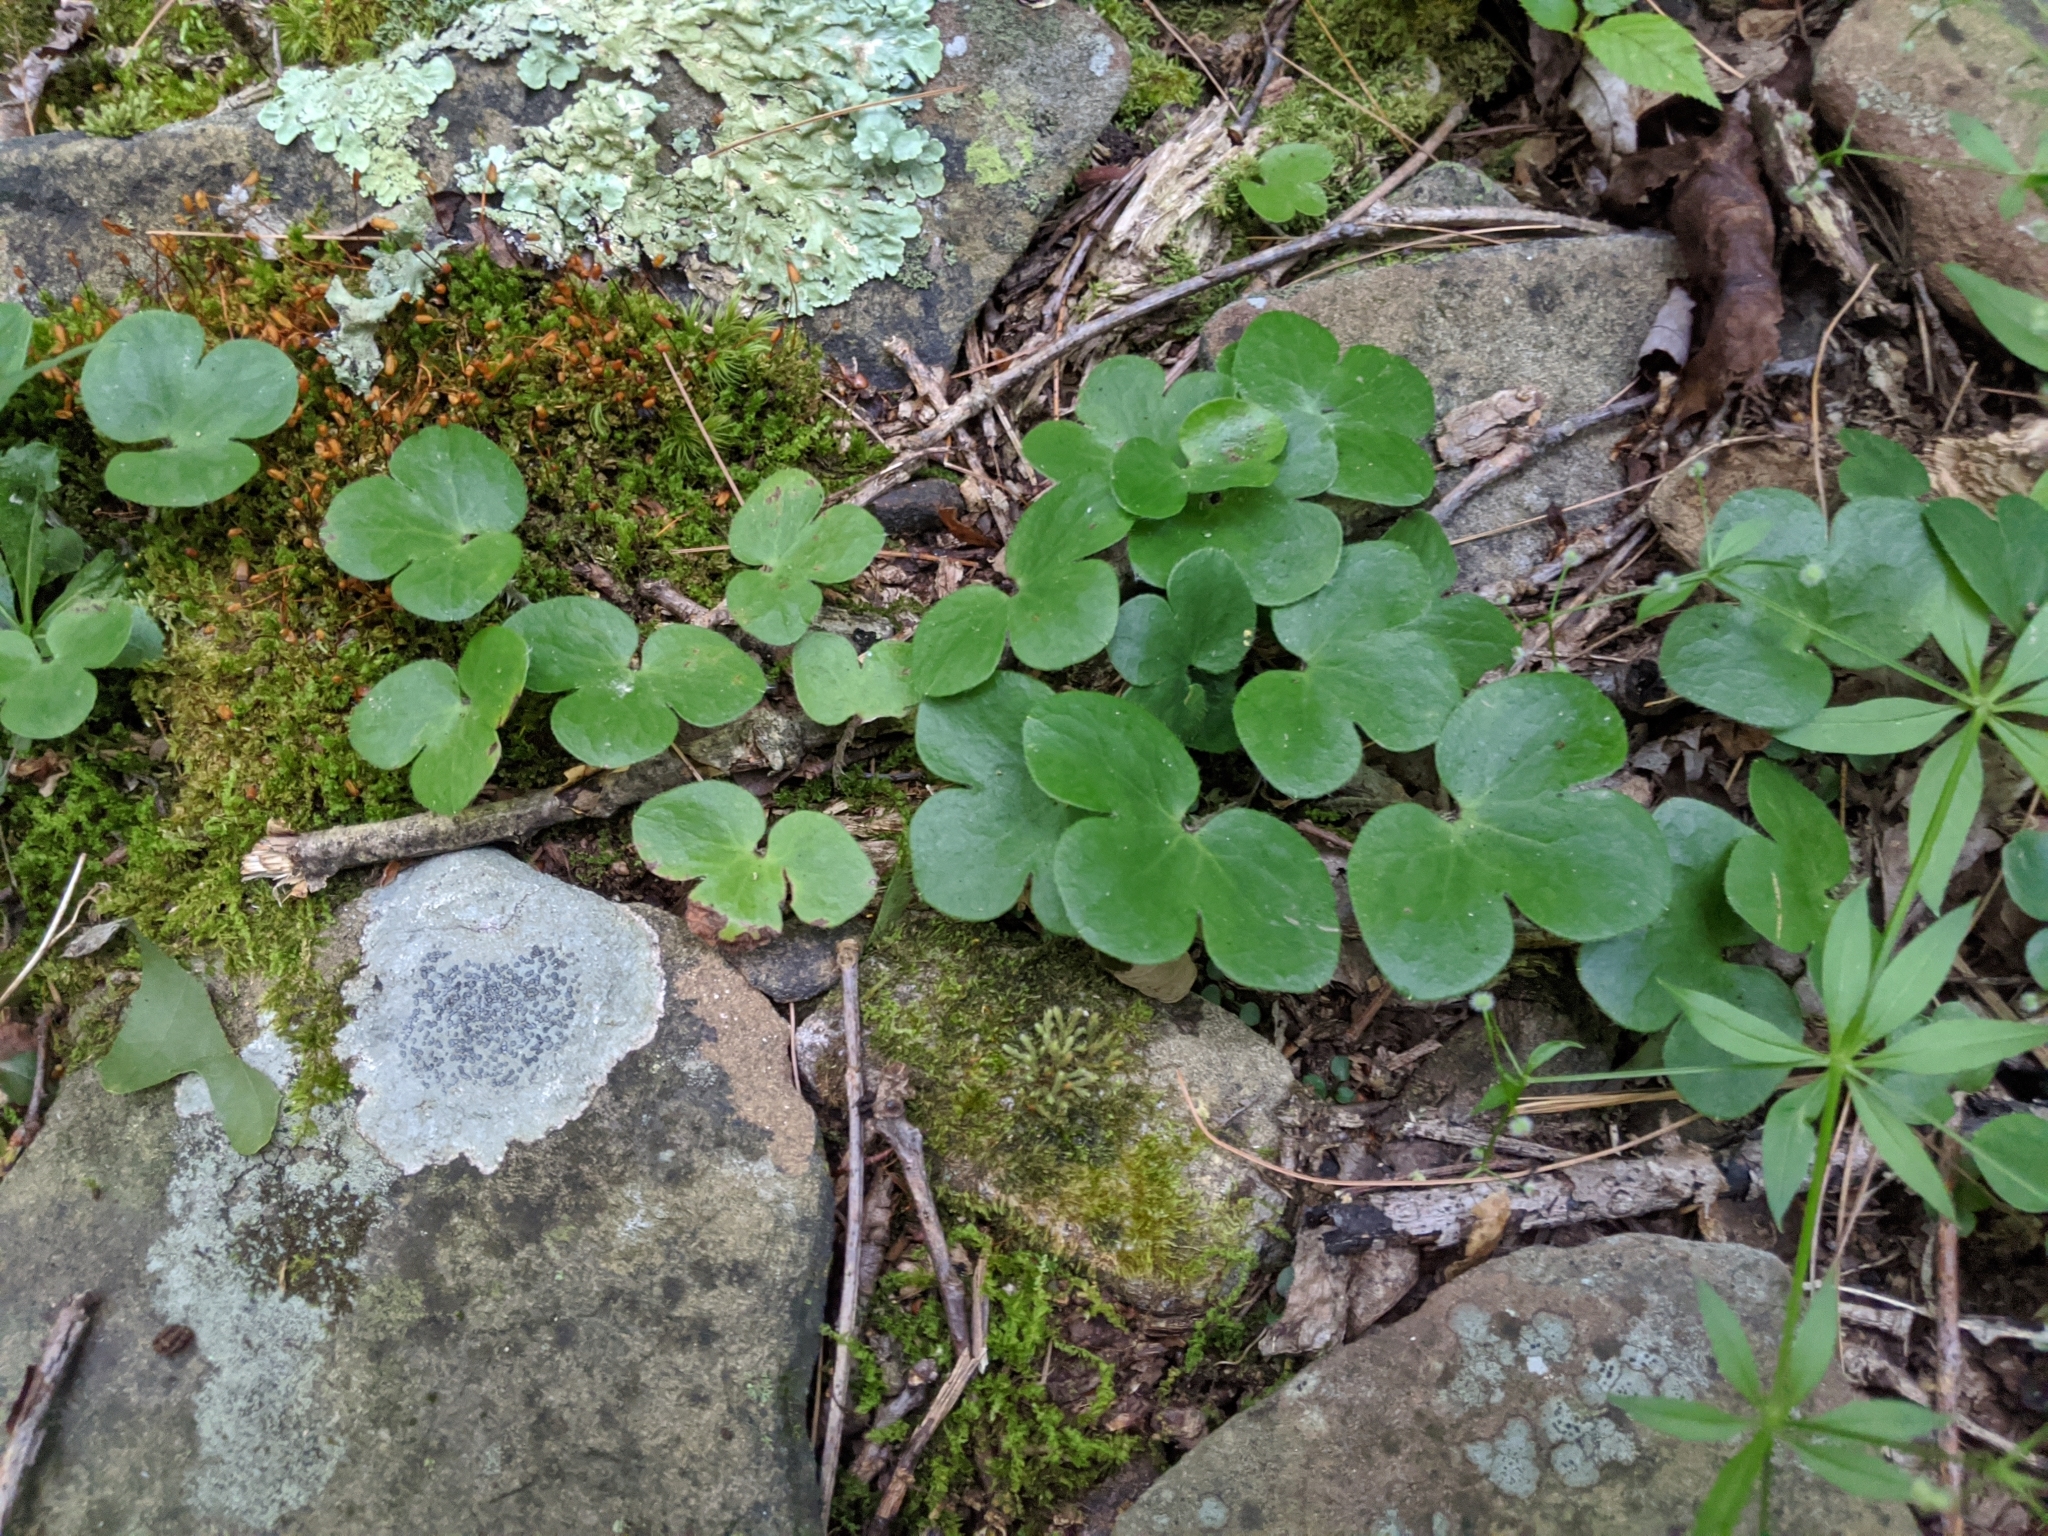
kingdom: Plantae
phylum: Tracheophyta
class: Magnoliopsida
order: Ranunculales
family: Ranunculaceae
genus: Hepatica
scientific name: Hepatica americana
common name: American hepatica
